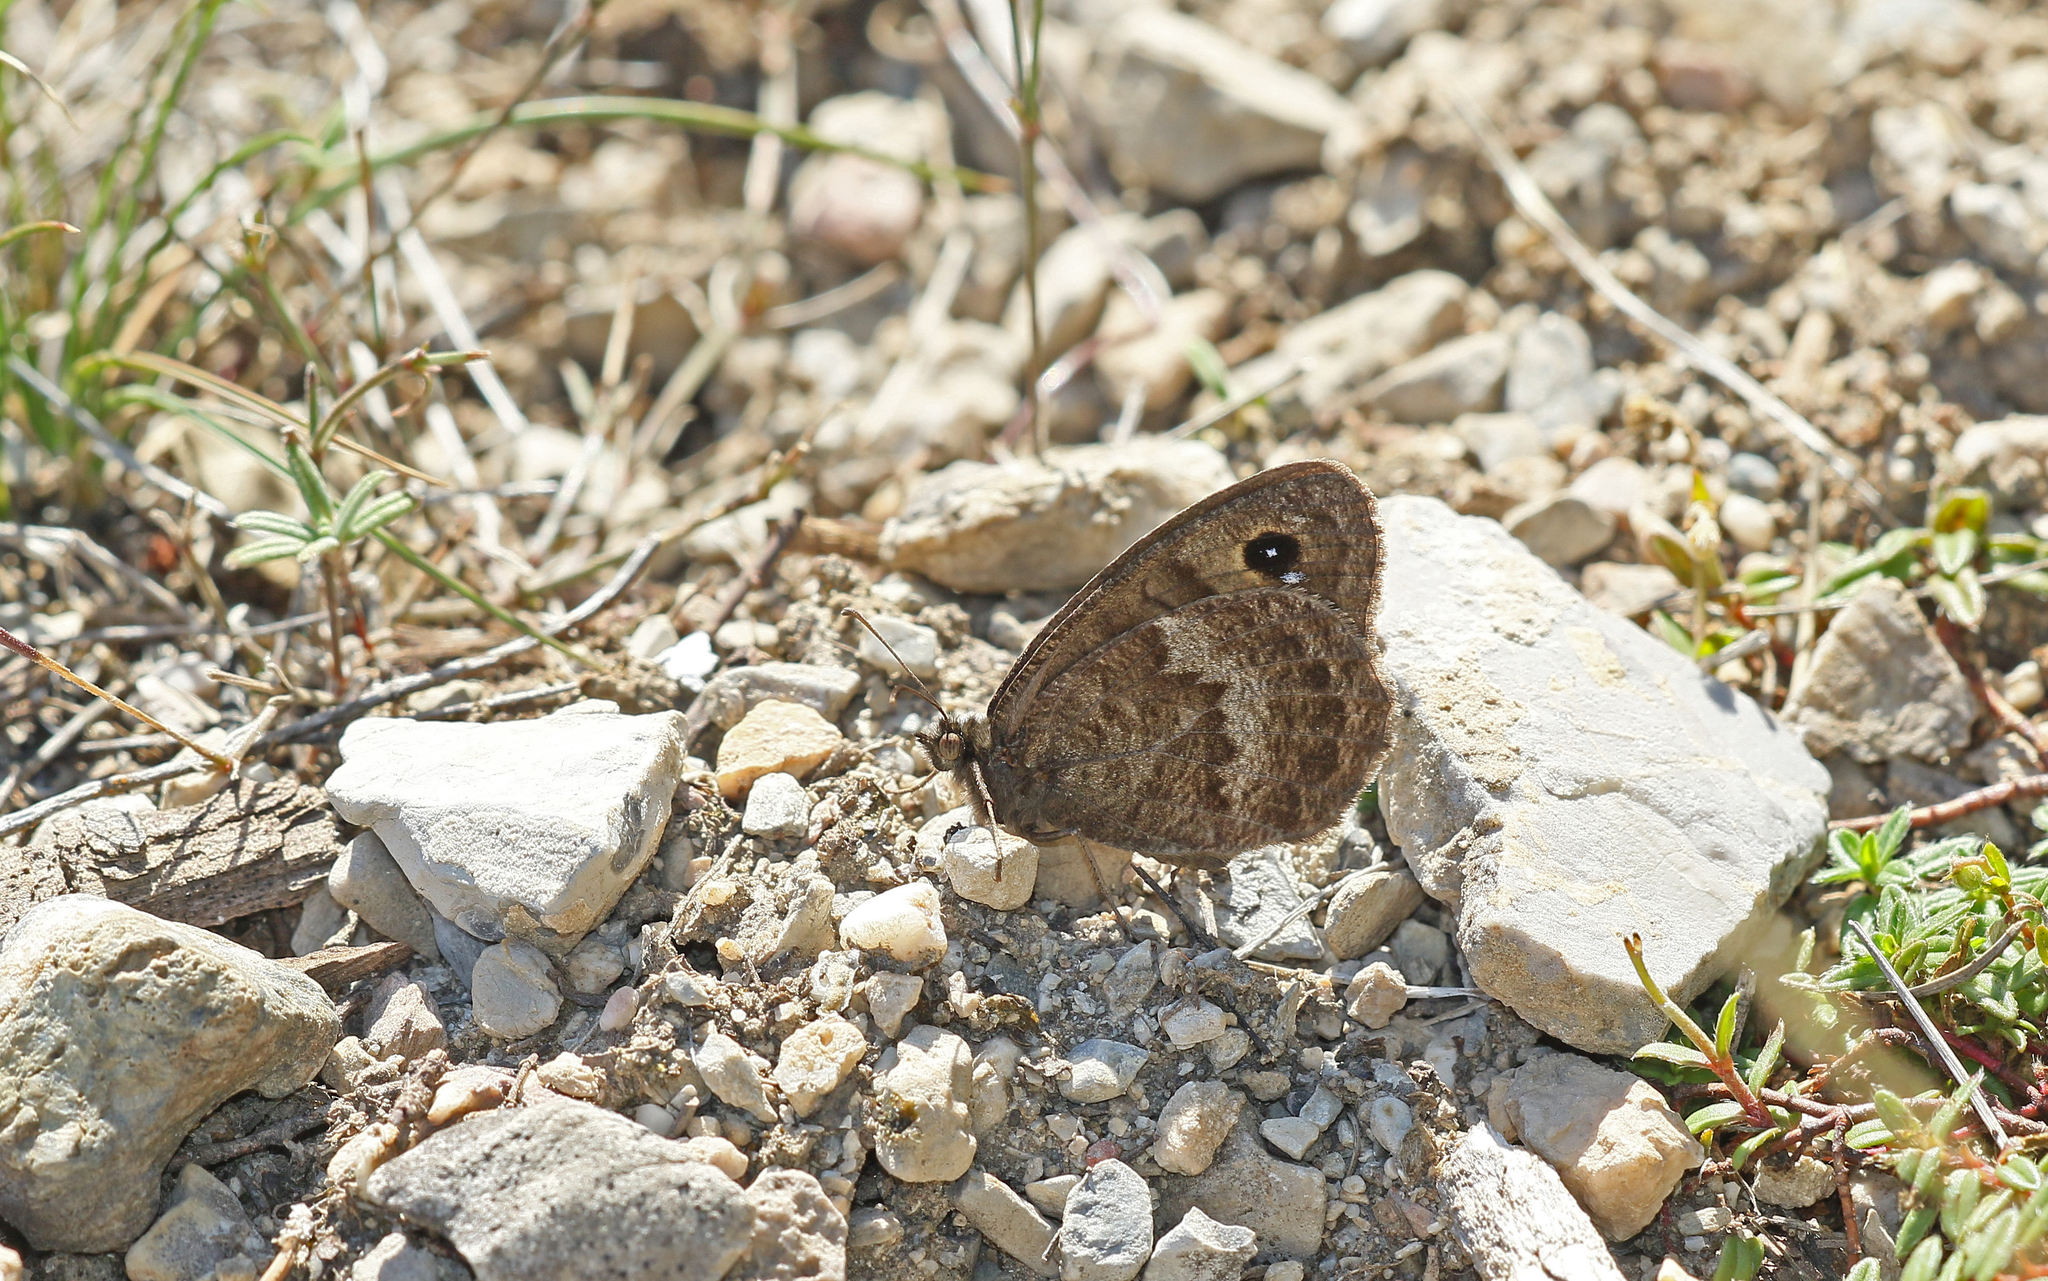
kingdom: Animalia
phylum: Arthropoda
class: Insecta
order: Lepidoptera
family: Nymphalidae
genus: Satyrus
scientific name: Satyrus actaea
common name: Black satyr
